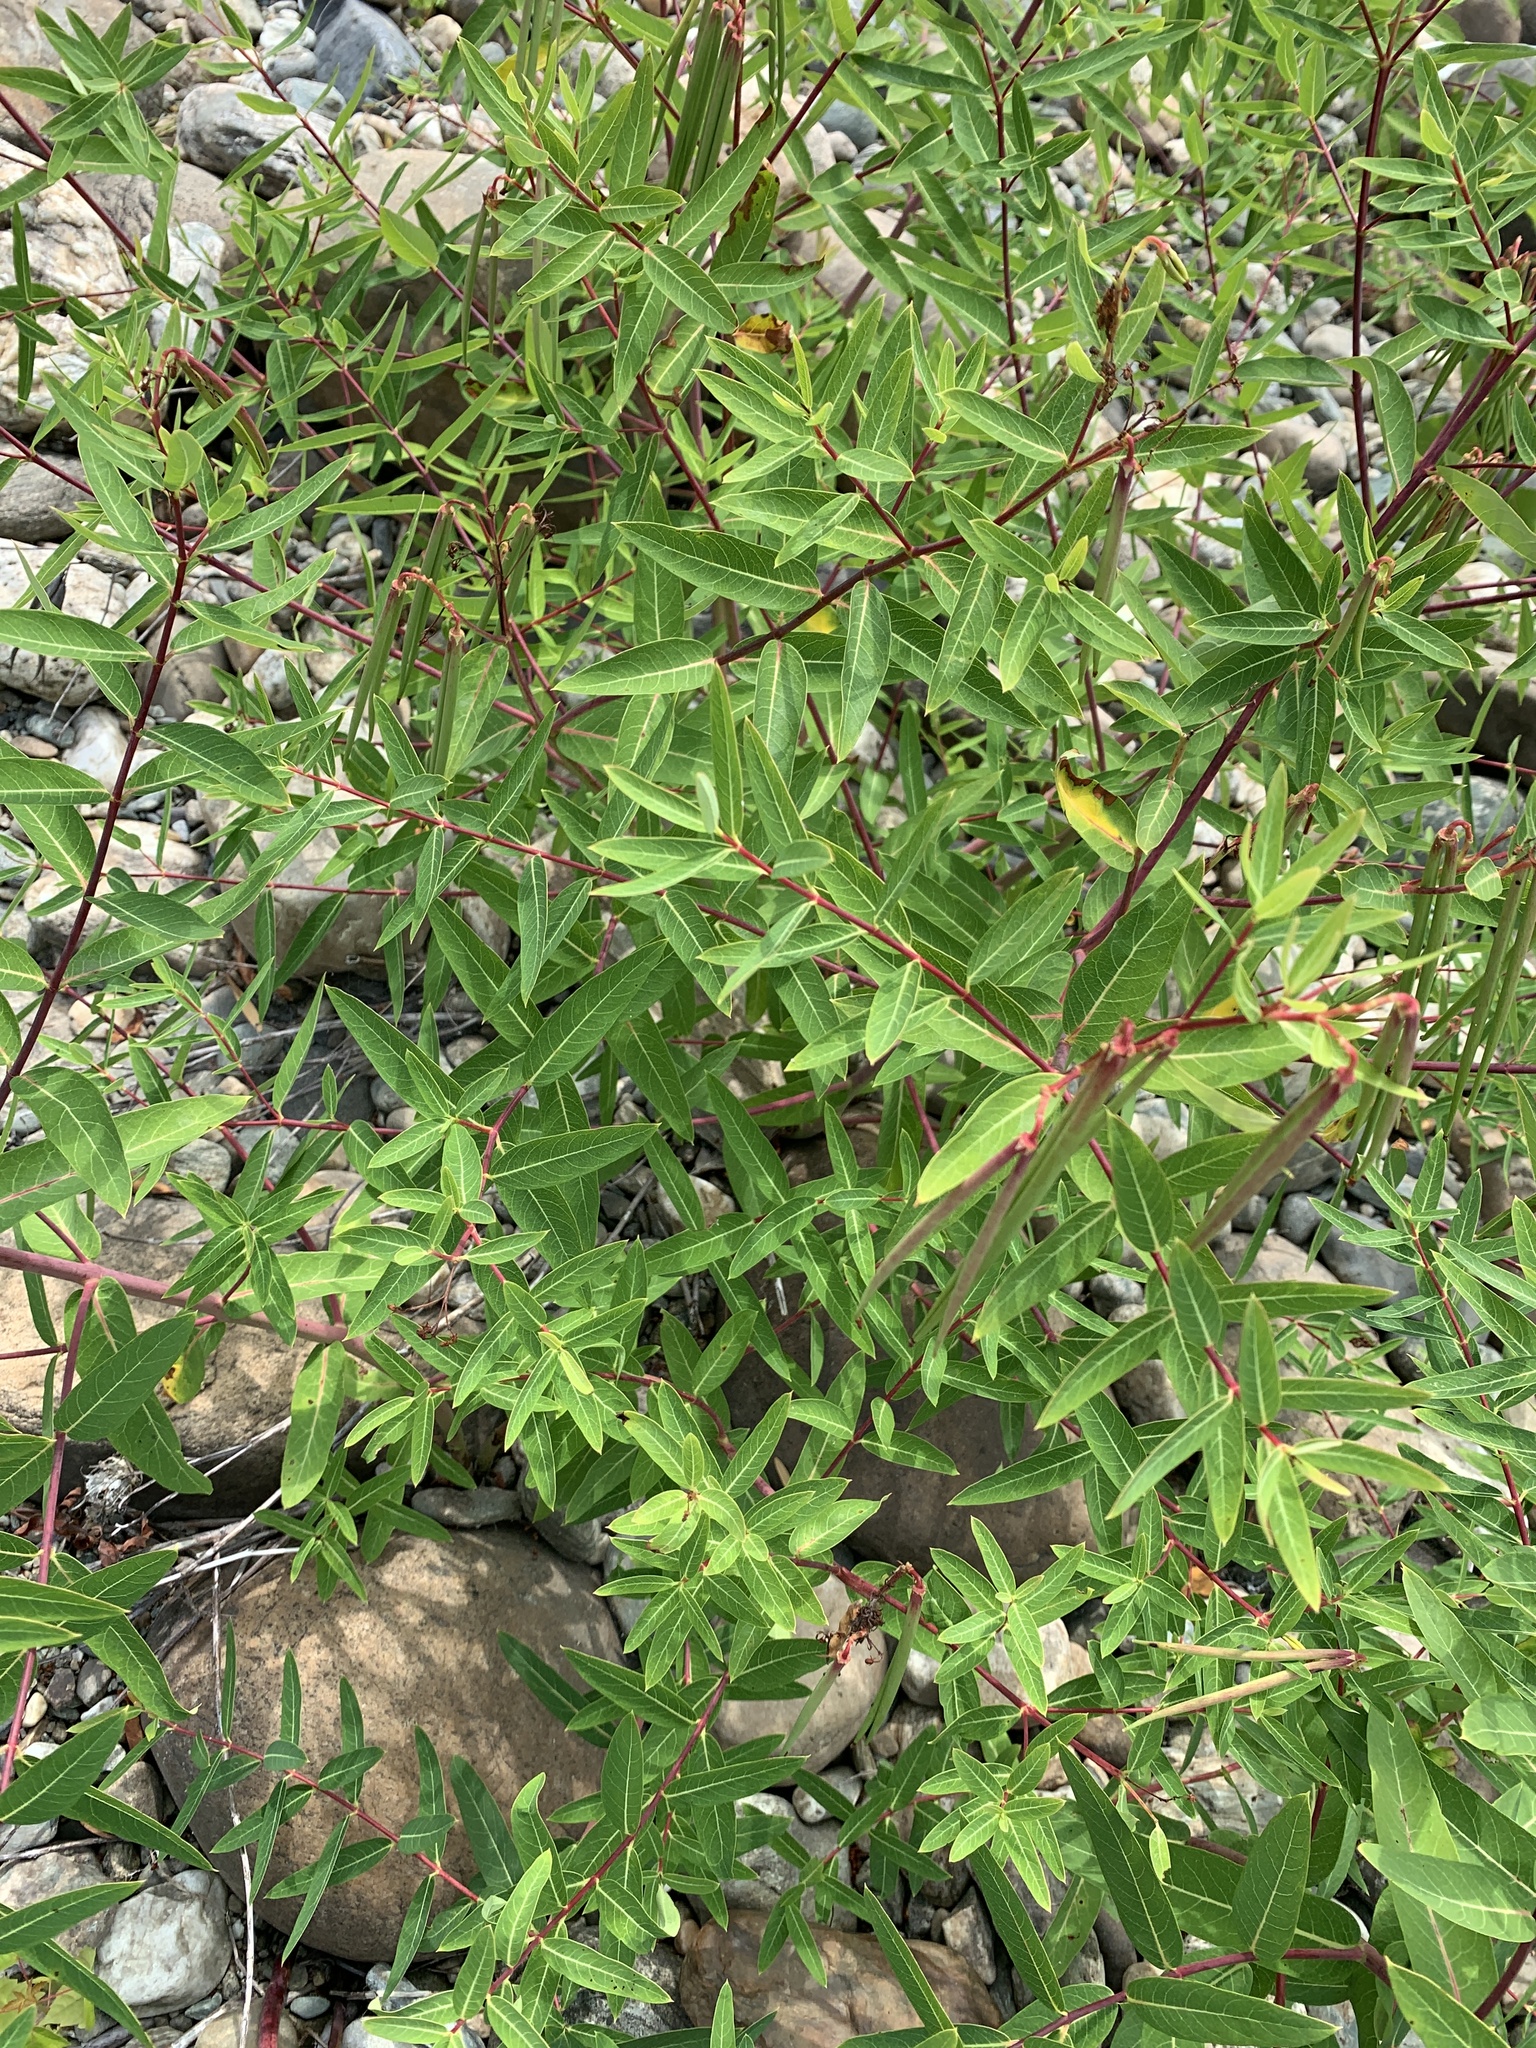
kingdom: Plantae
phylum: Tracheophyta
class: Magnoliopsida
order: Gentianales
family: Apocynaceae
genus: Apocynum
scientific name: Apocynum cannabinum
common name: Hemp dogbane
